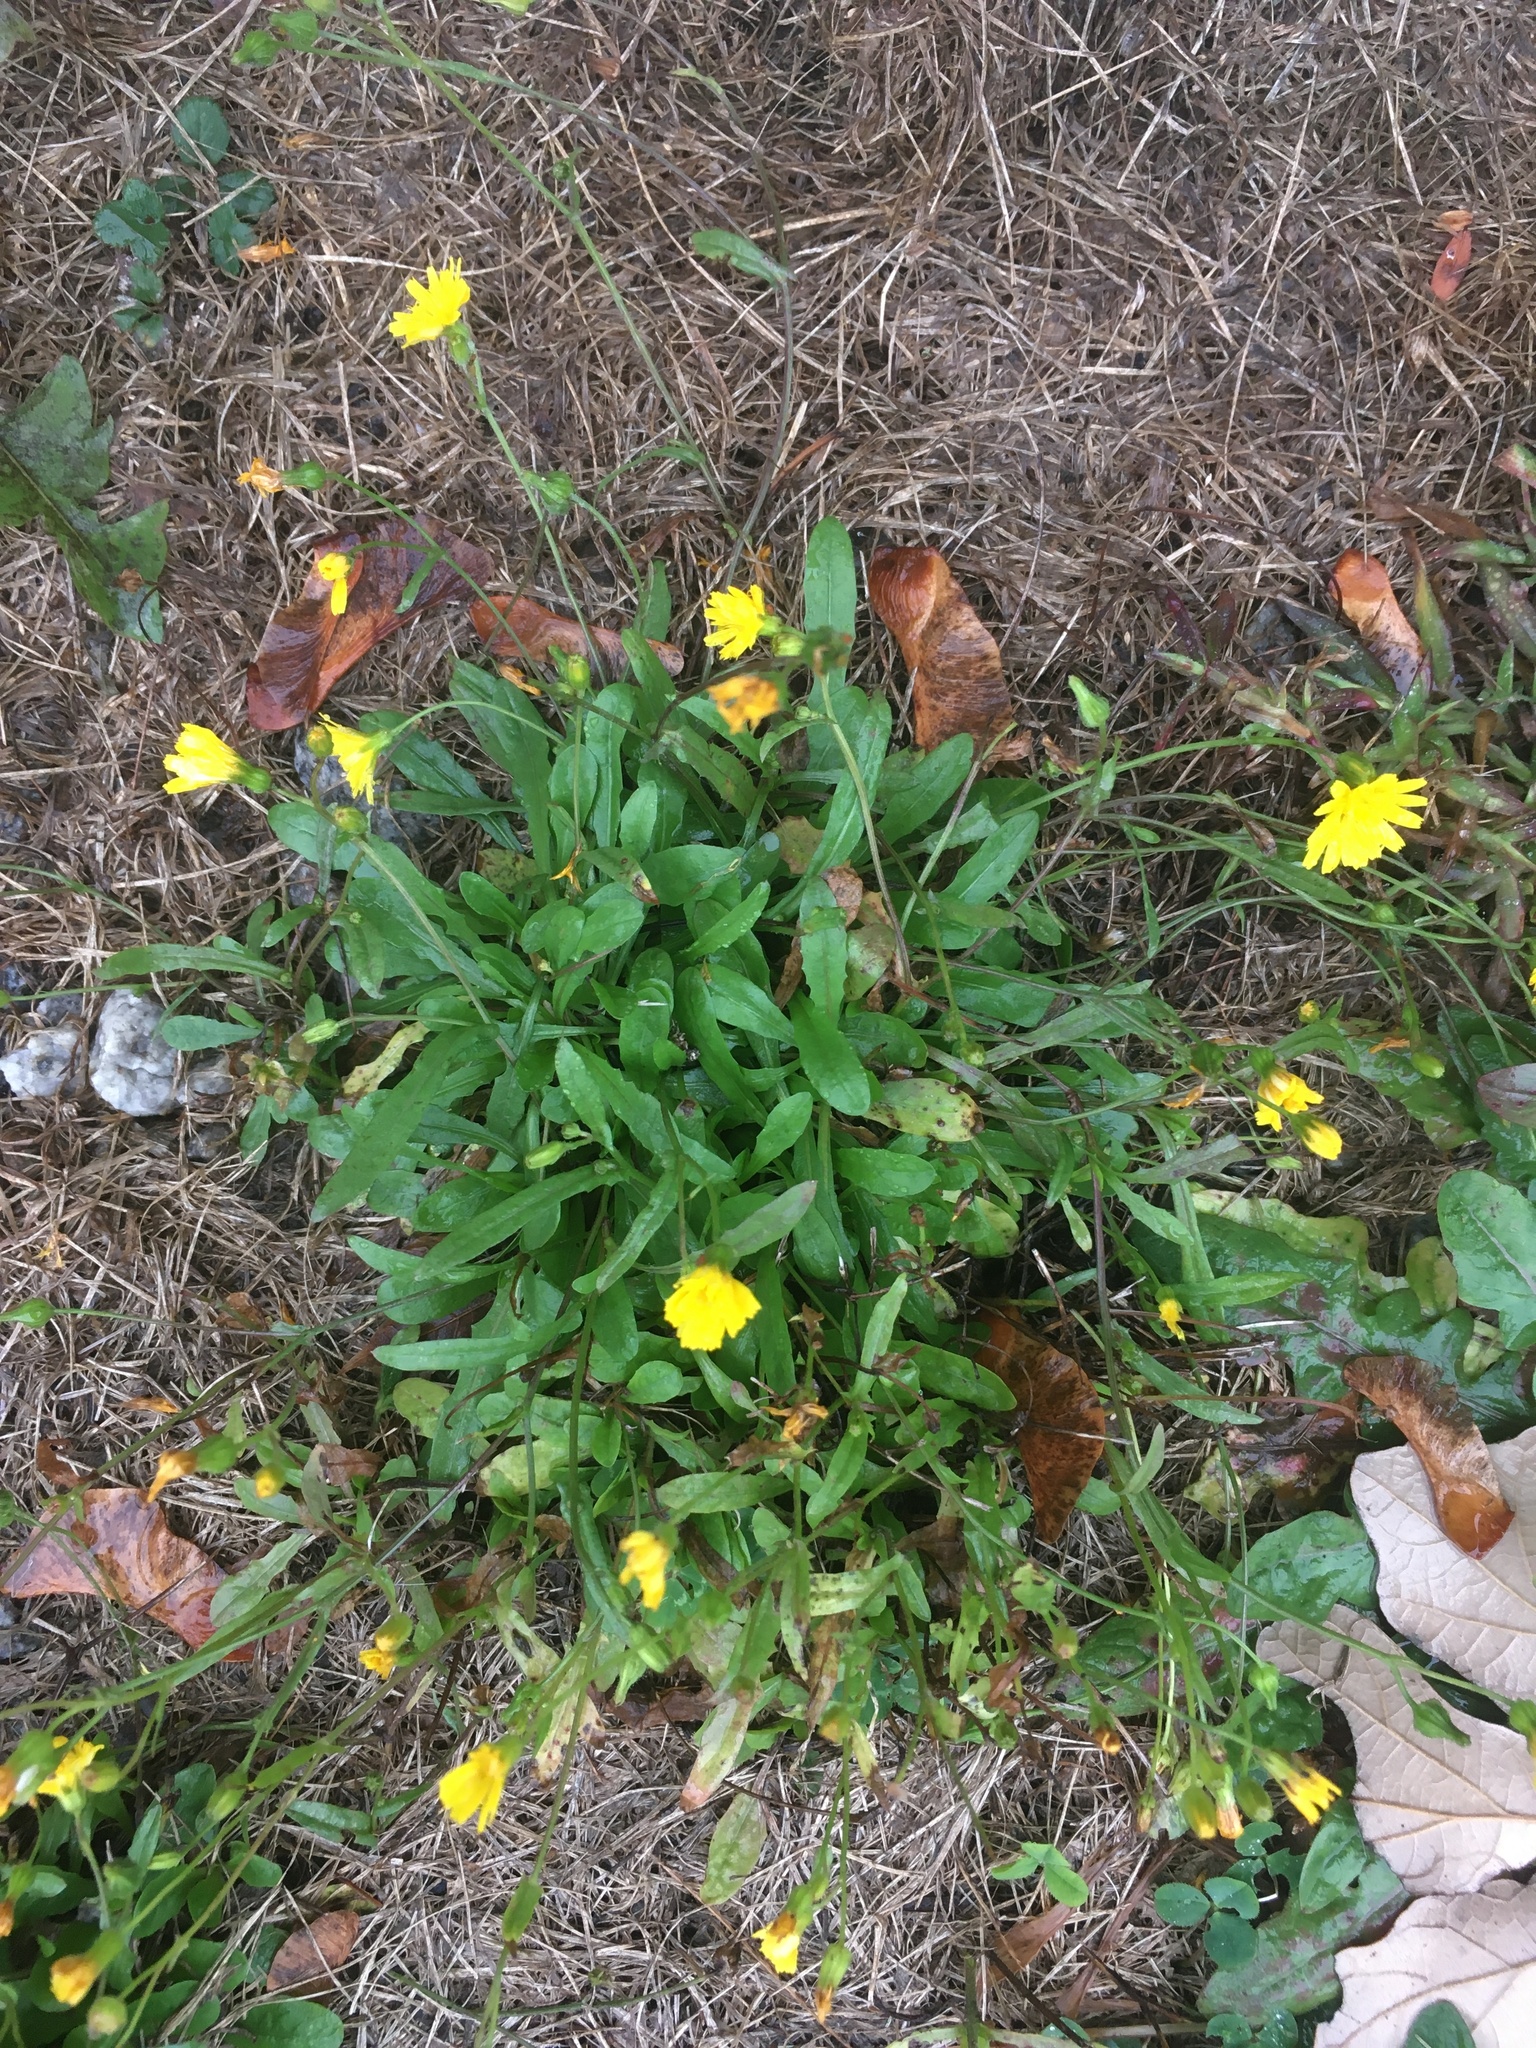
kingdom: Plantae
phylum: Tracheophyta
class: Magnoliopsida
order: Asterales
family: Asteraceae
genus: Scorzoneroides
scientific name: Scorzoneroides autumnalis
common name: Autumn hawkbit
